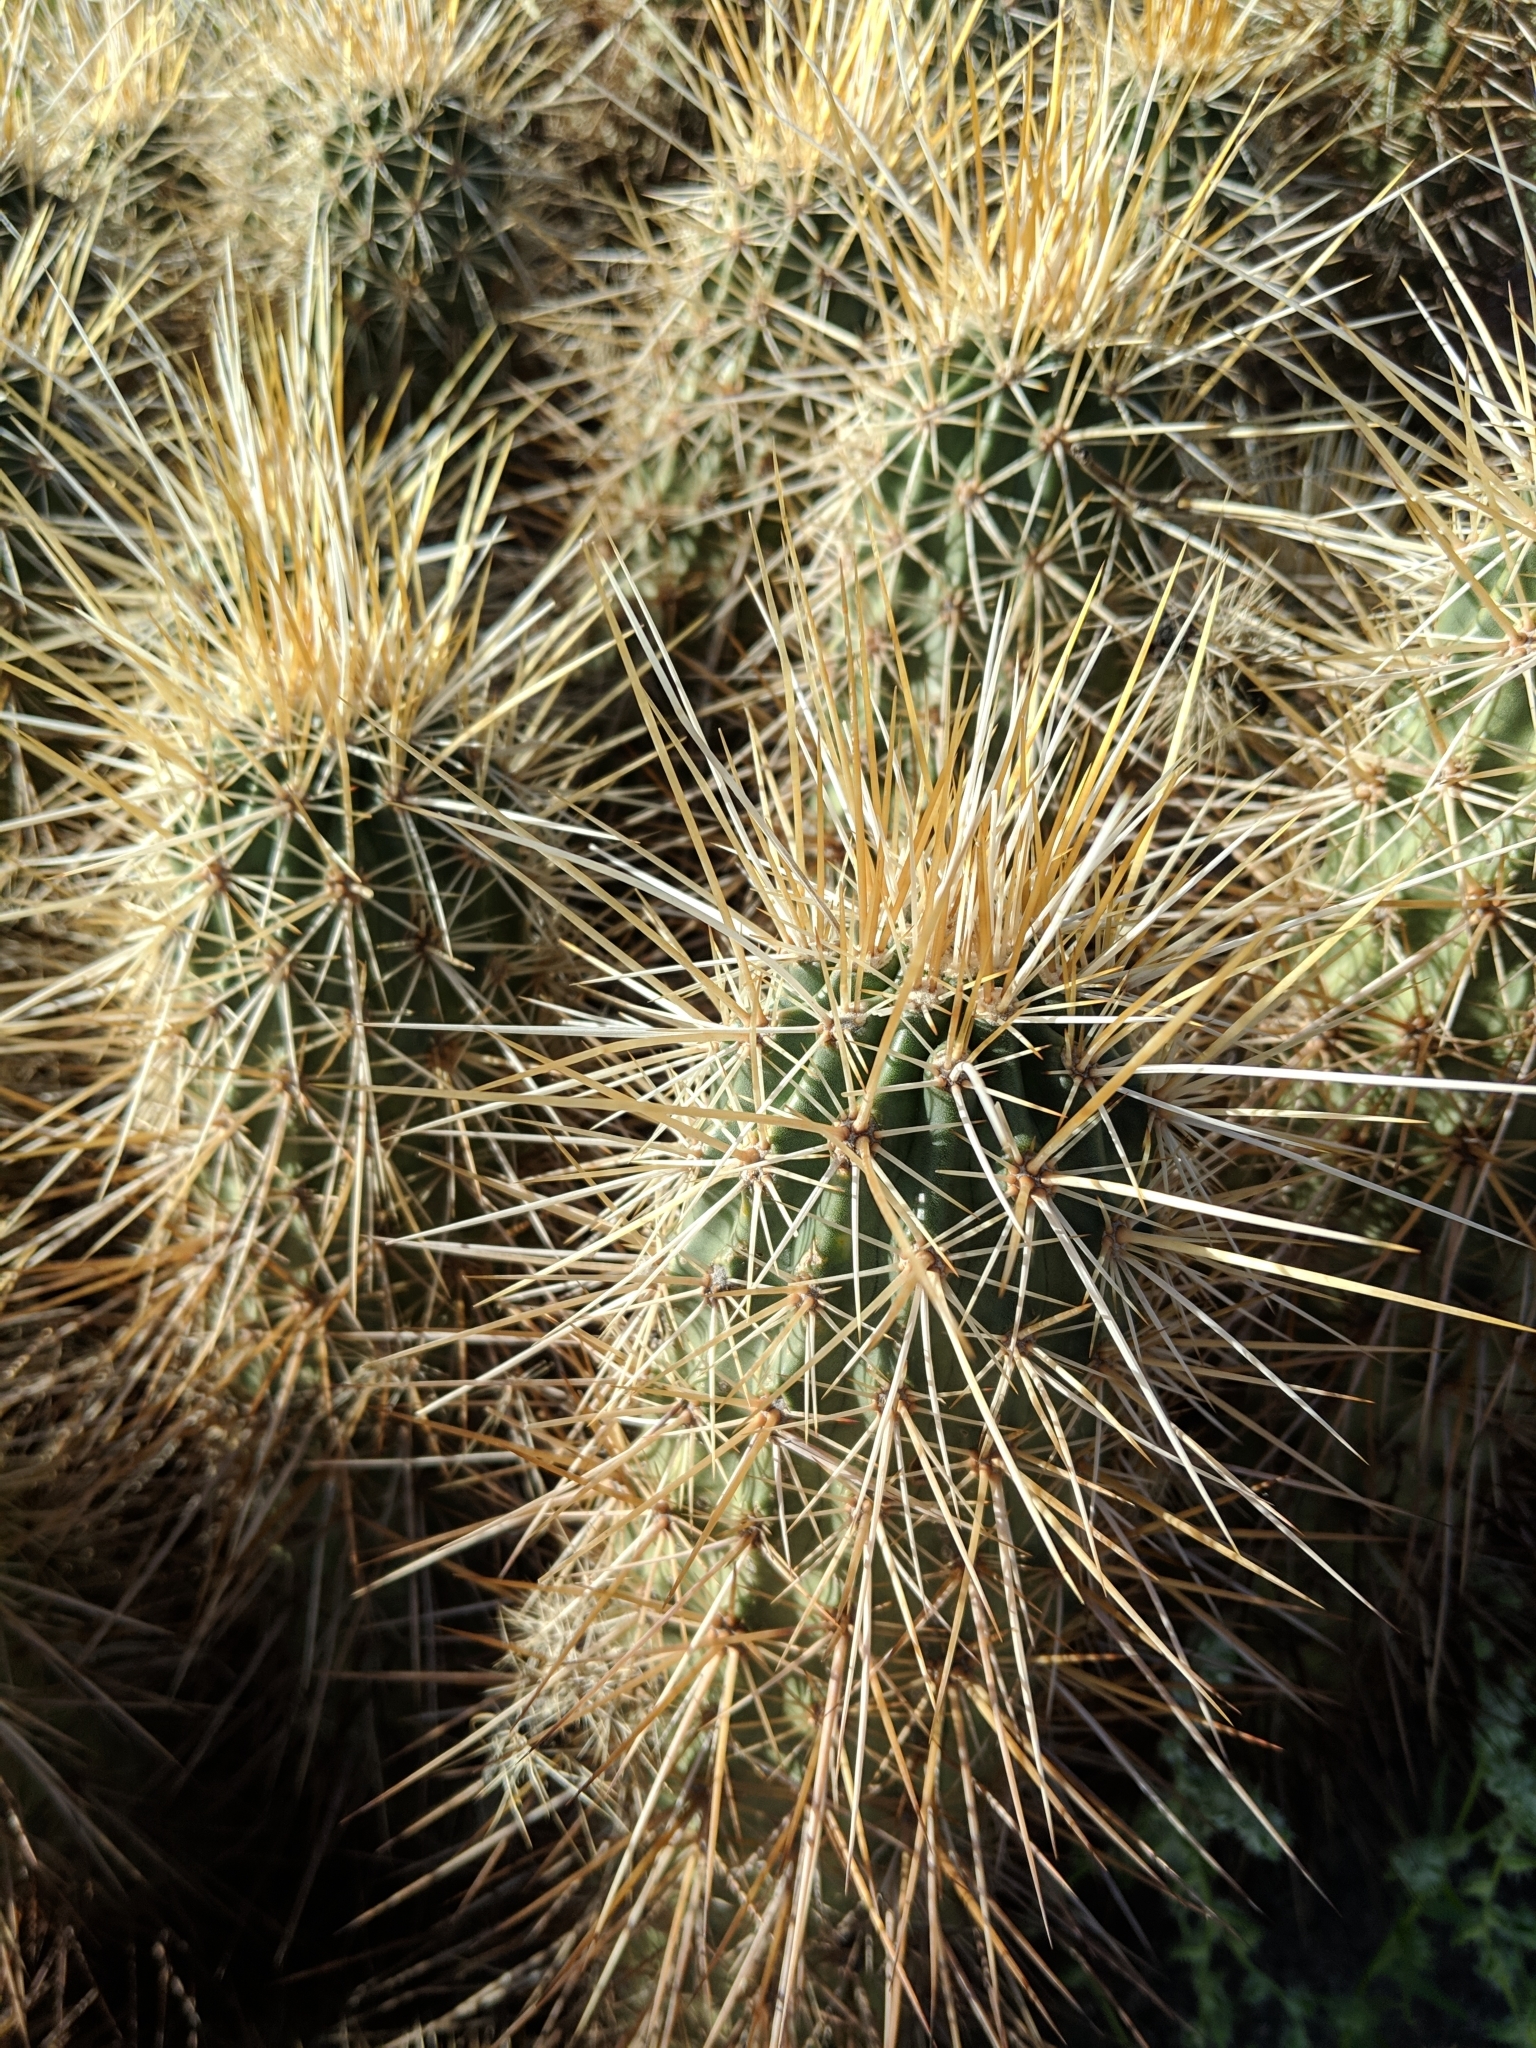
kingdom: Plantae
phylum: Tracheophyta
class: Magnoliopsida
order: Caryophyllales
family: Cactaceae
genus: Echinocereus
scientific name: Echinocereus engelmannii
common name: Engelmann's hedgehog cactus
